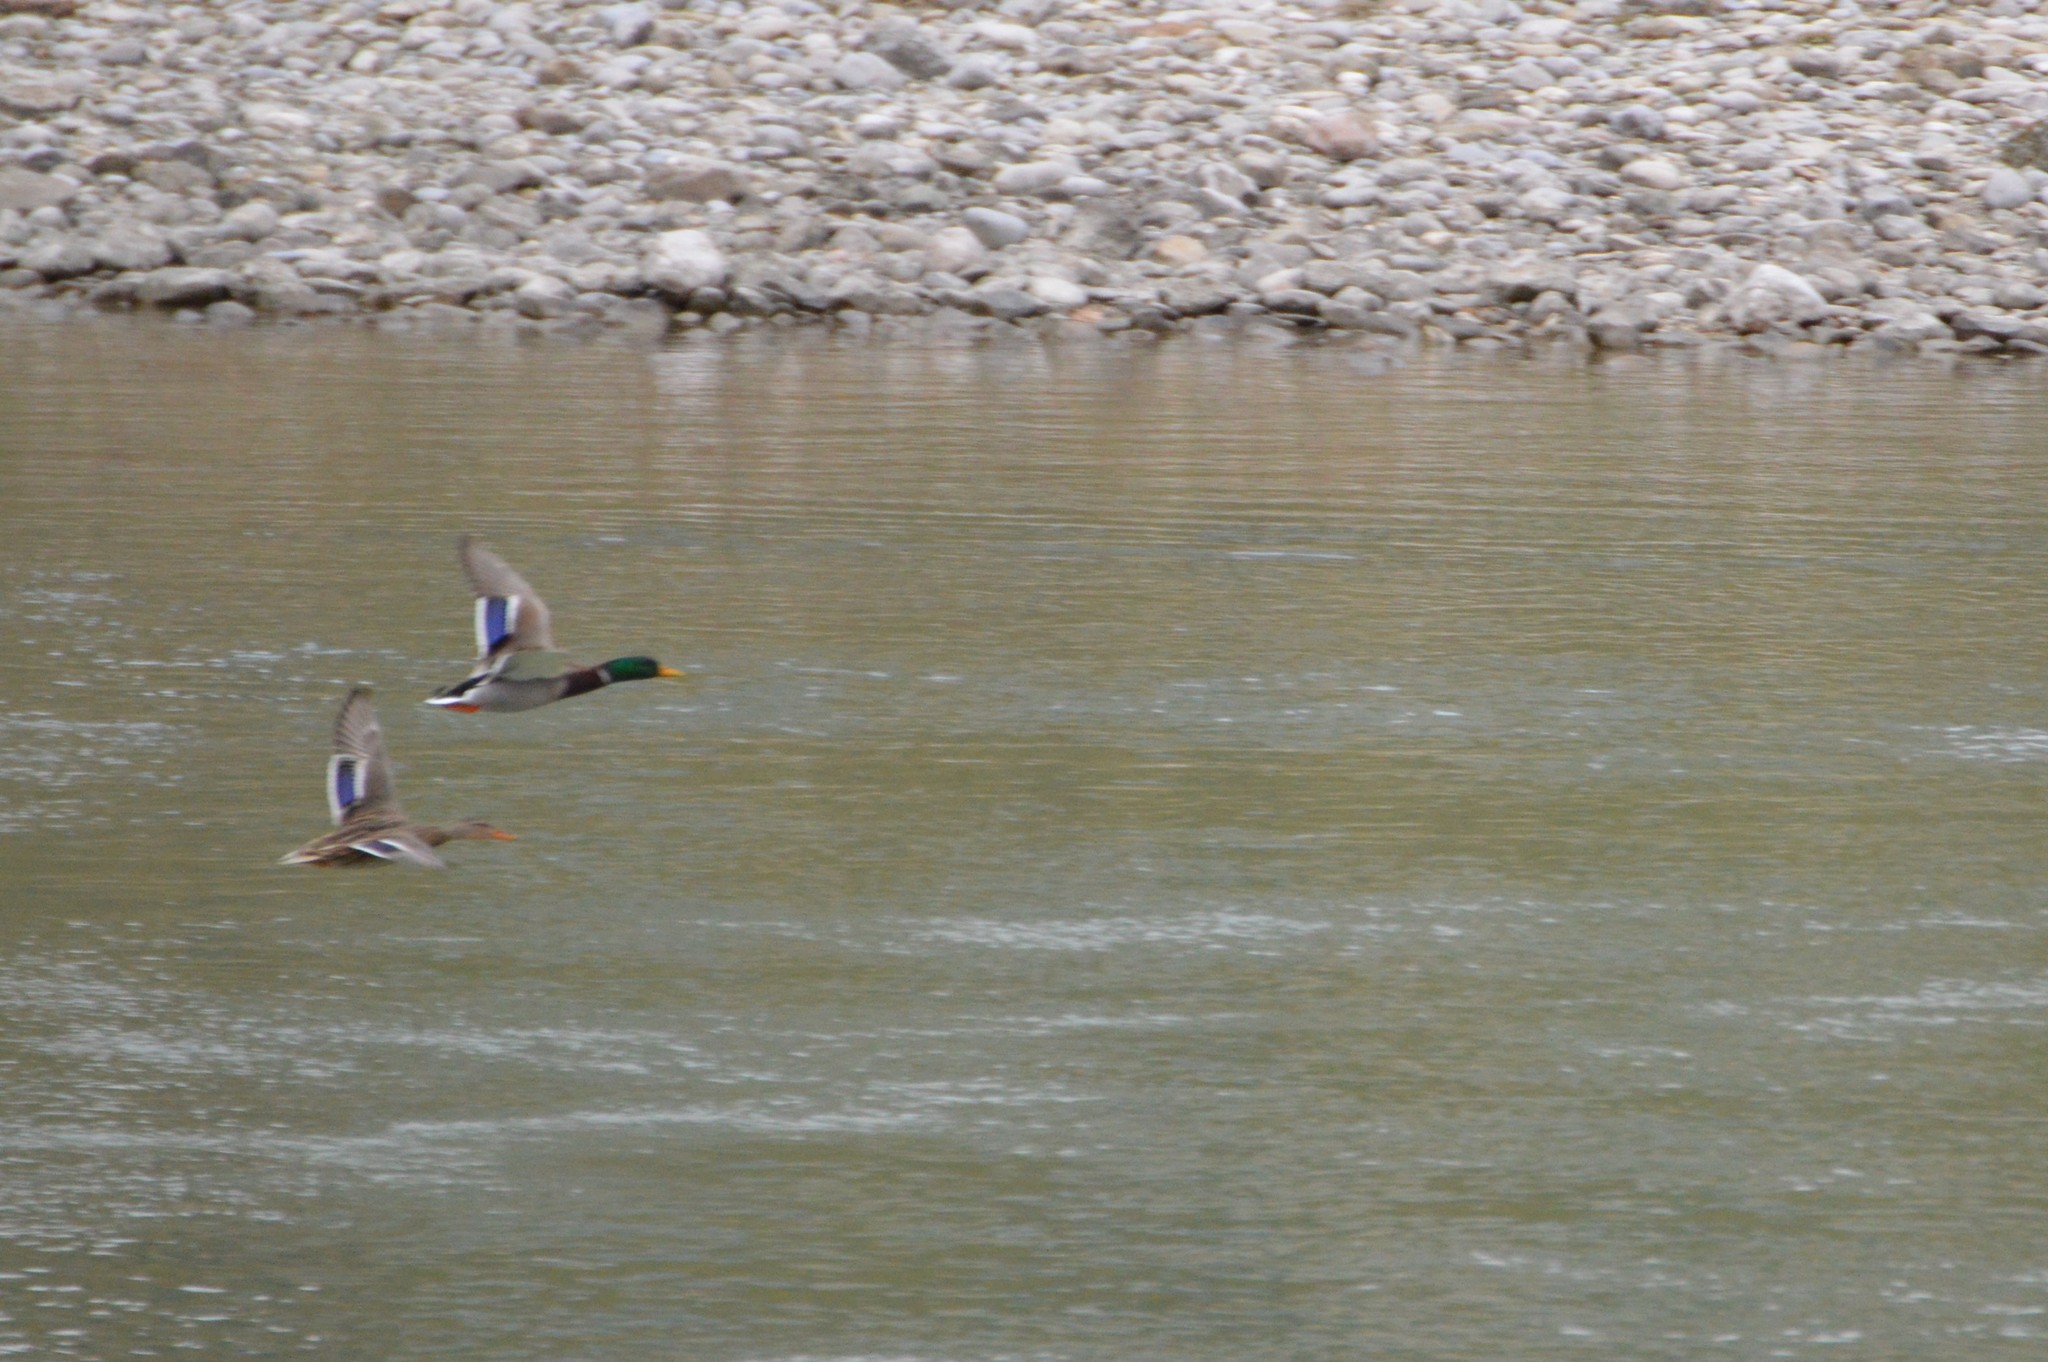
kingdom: Animalia
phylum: Chordata
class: Aves
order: Anseriformes
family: Anatidae
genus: Anas
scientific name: Anas platyrhynchos
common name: Mallard
